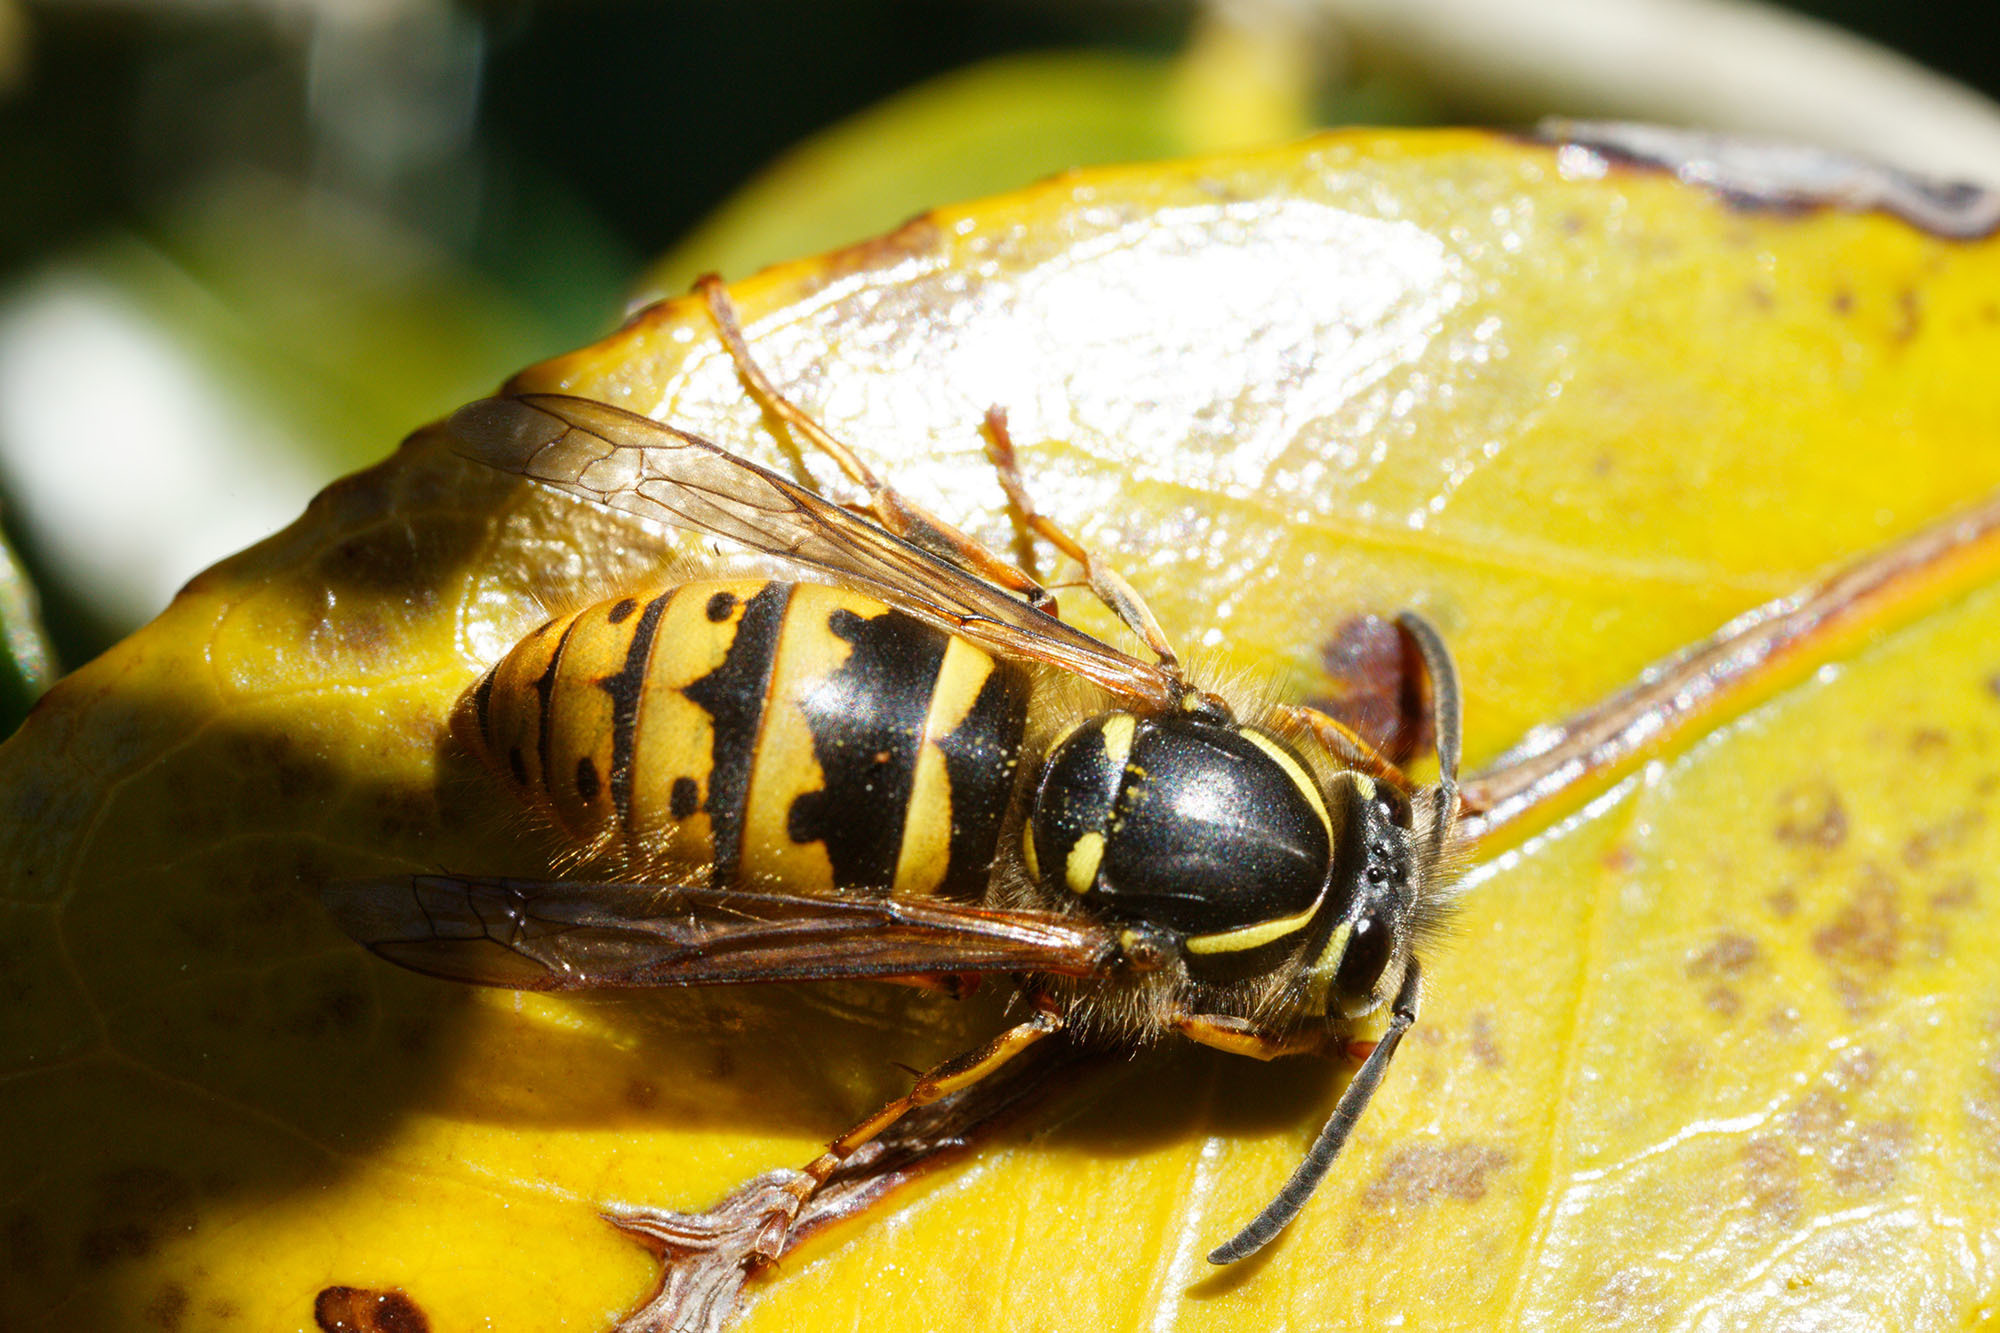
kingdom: Animalia
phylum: Arthropoda
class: Insecta
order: Hymenoptera
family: Vespidae
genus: Vespula
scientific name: Vespula vulgaris
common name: Common wasp
